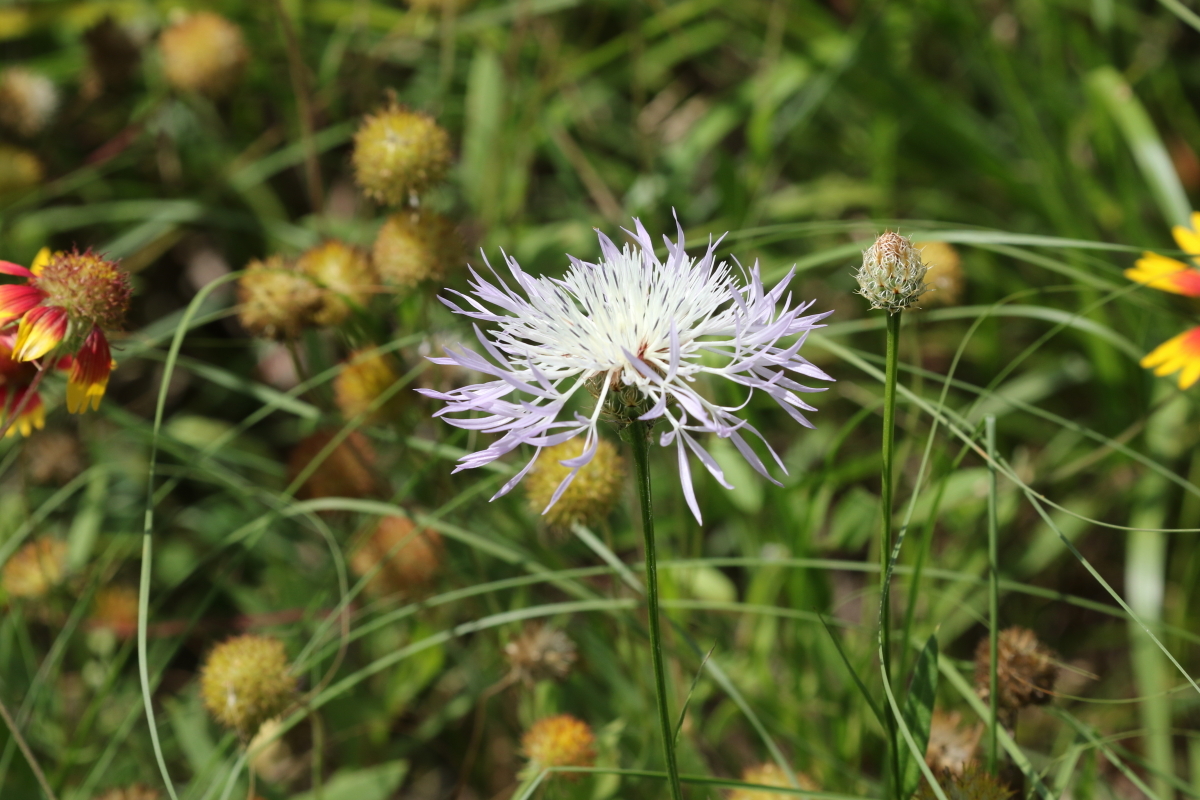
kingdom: Plantae
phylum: Tracheophyta
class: Magnoliopsida
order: Asterales
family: Asteraceae
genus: Plectocephalus
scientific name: Plectocephalus americanus
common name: American basket-flower
